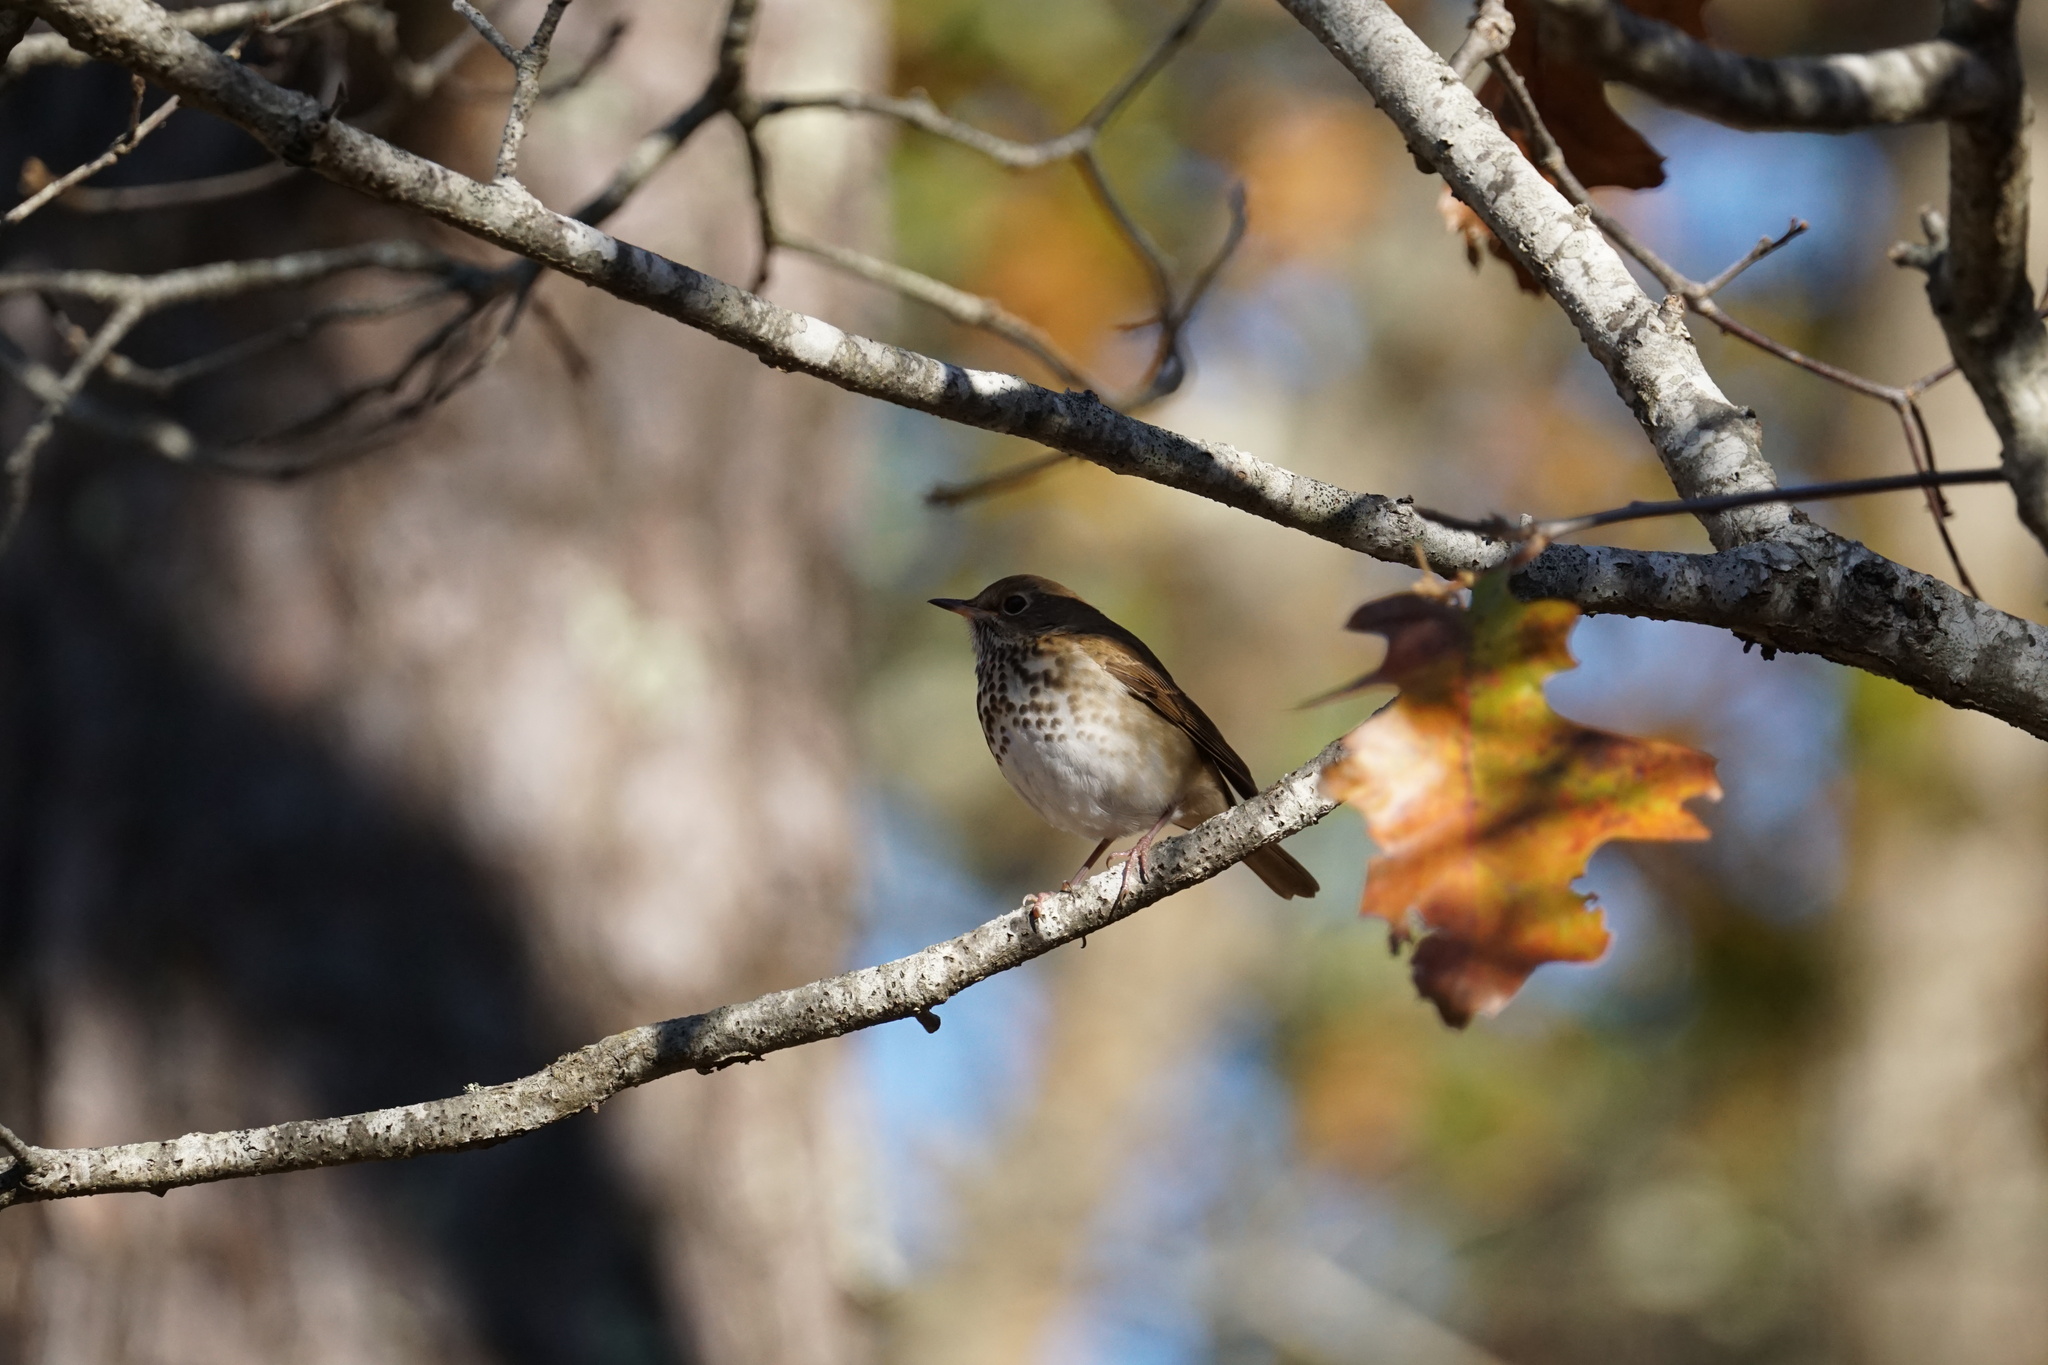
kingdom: Animalia
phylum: Chordata
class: Aves
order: Passeriformes
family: Turdidae
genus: Catharus
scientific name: Catharus guttatus
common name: Hermit thrush
